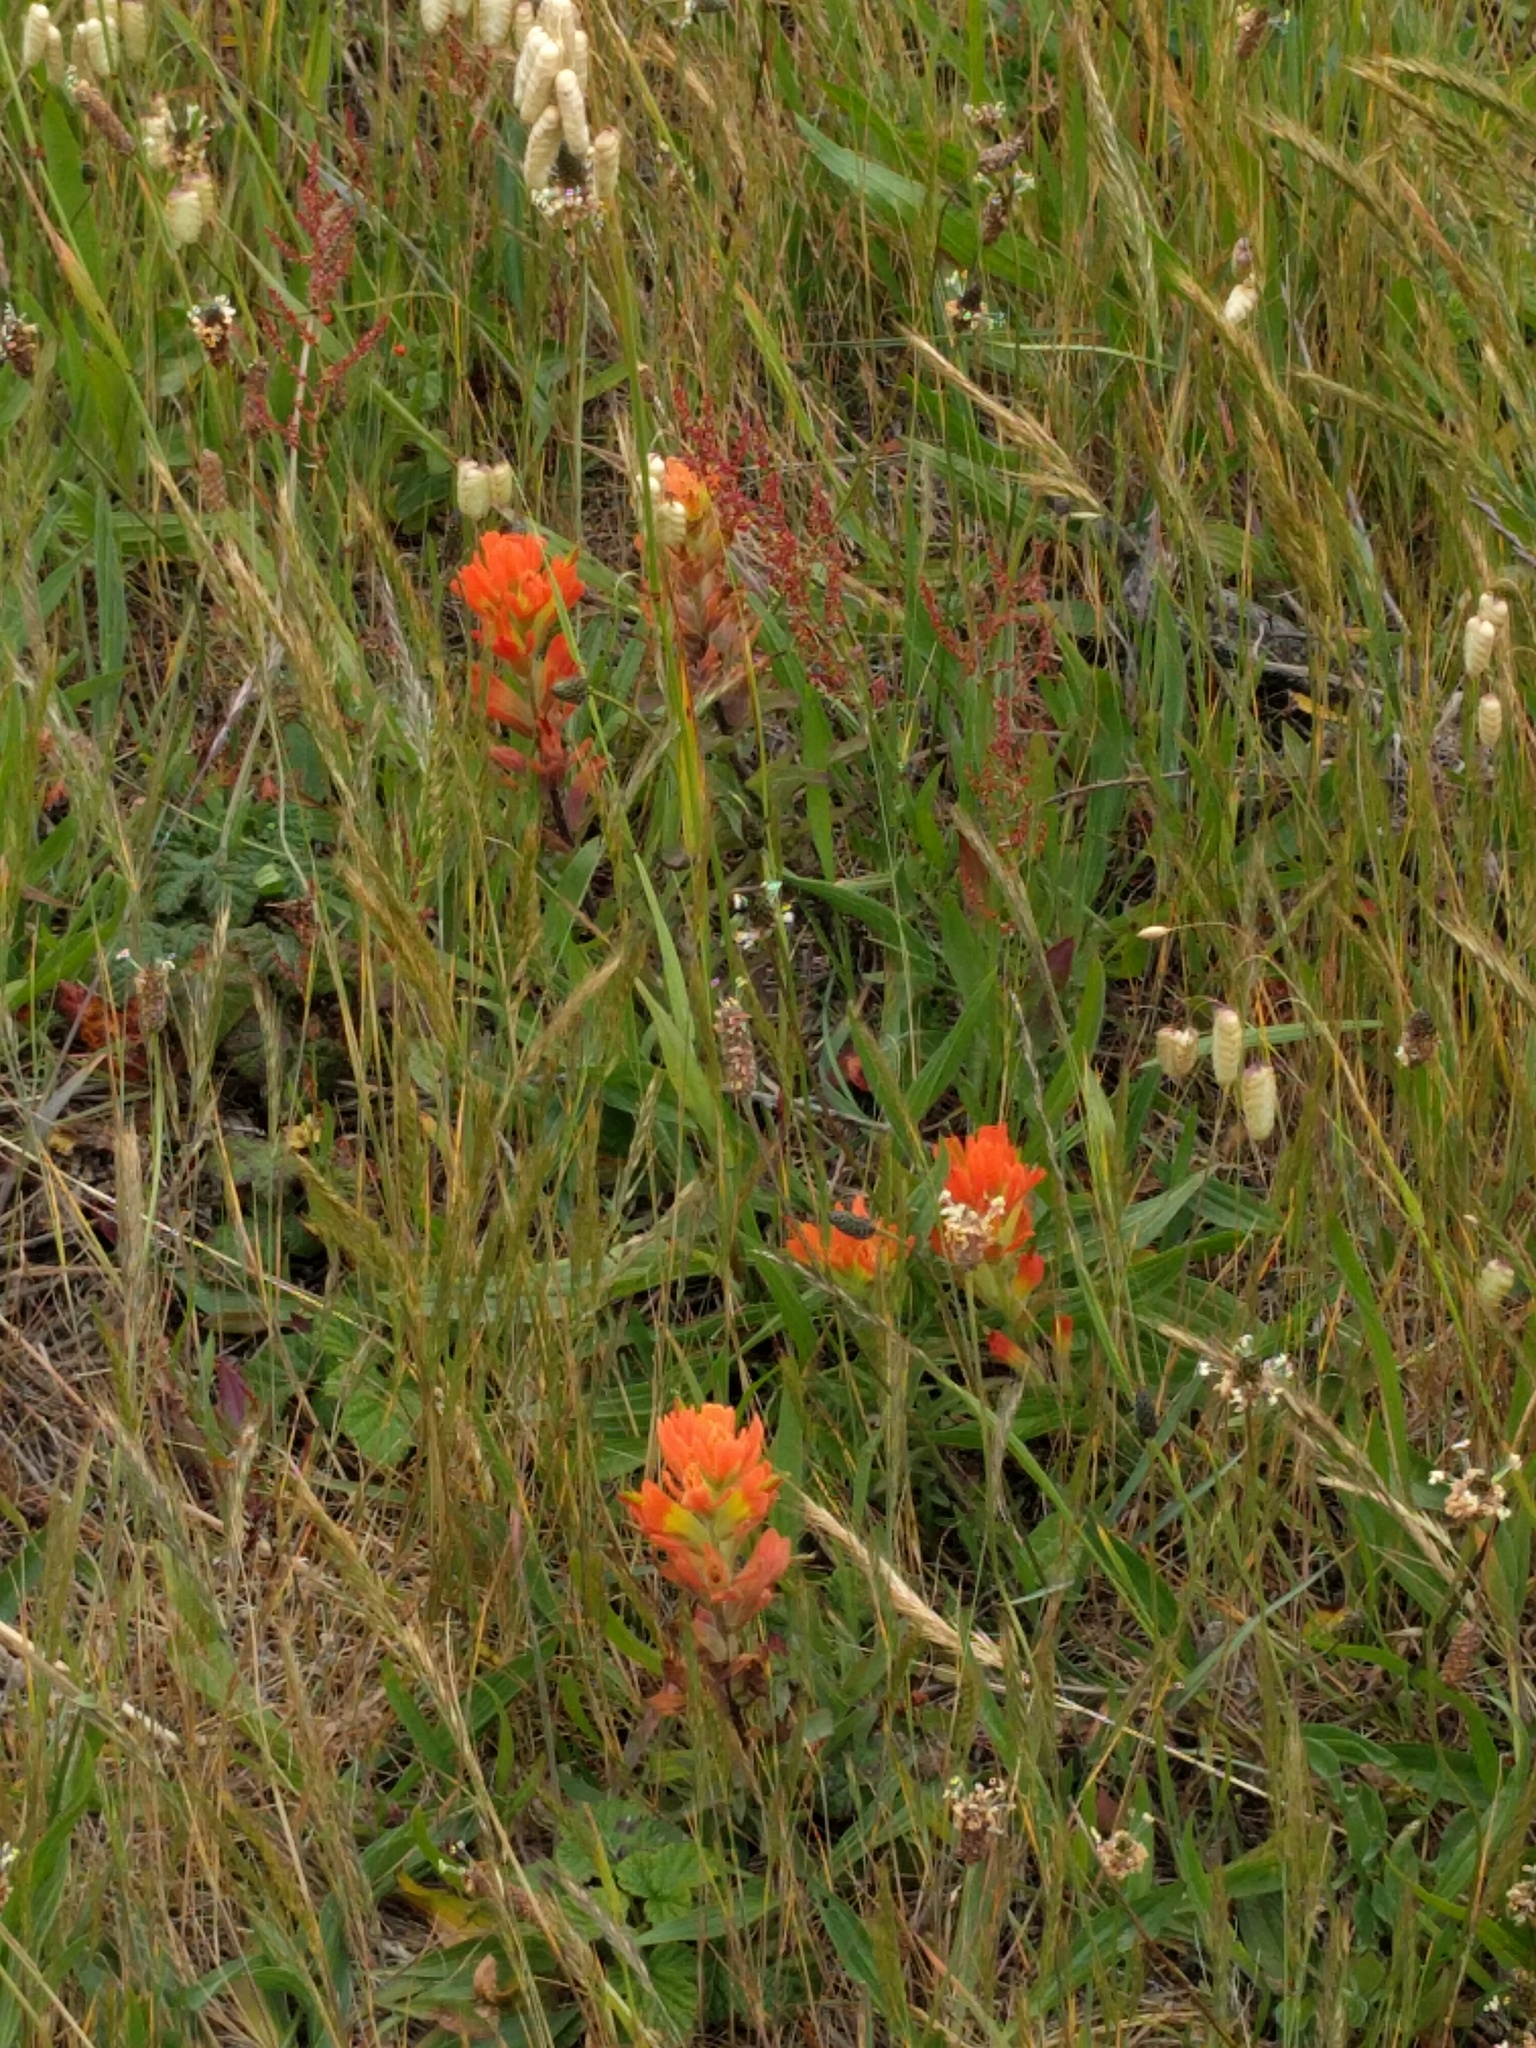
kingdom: Plantae
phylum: Tracheophyta
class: Magnoliopsida
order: Lamiales
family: Orobanchaceae
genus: Castilleja
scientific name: Castilleja affinis
